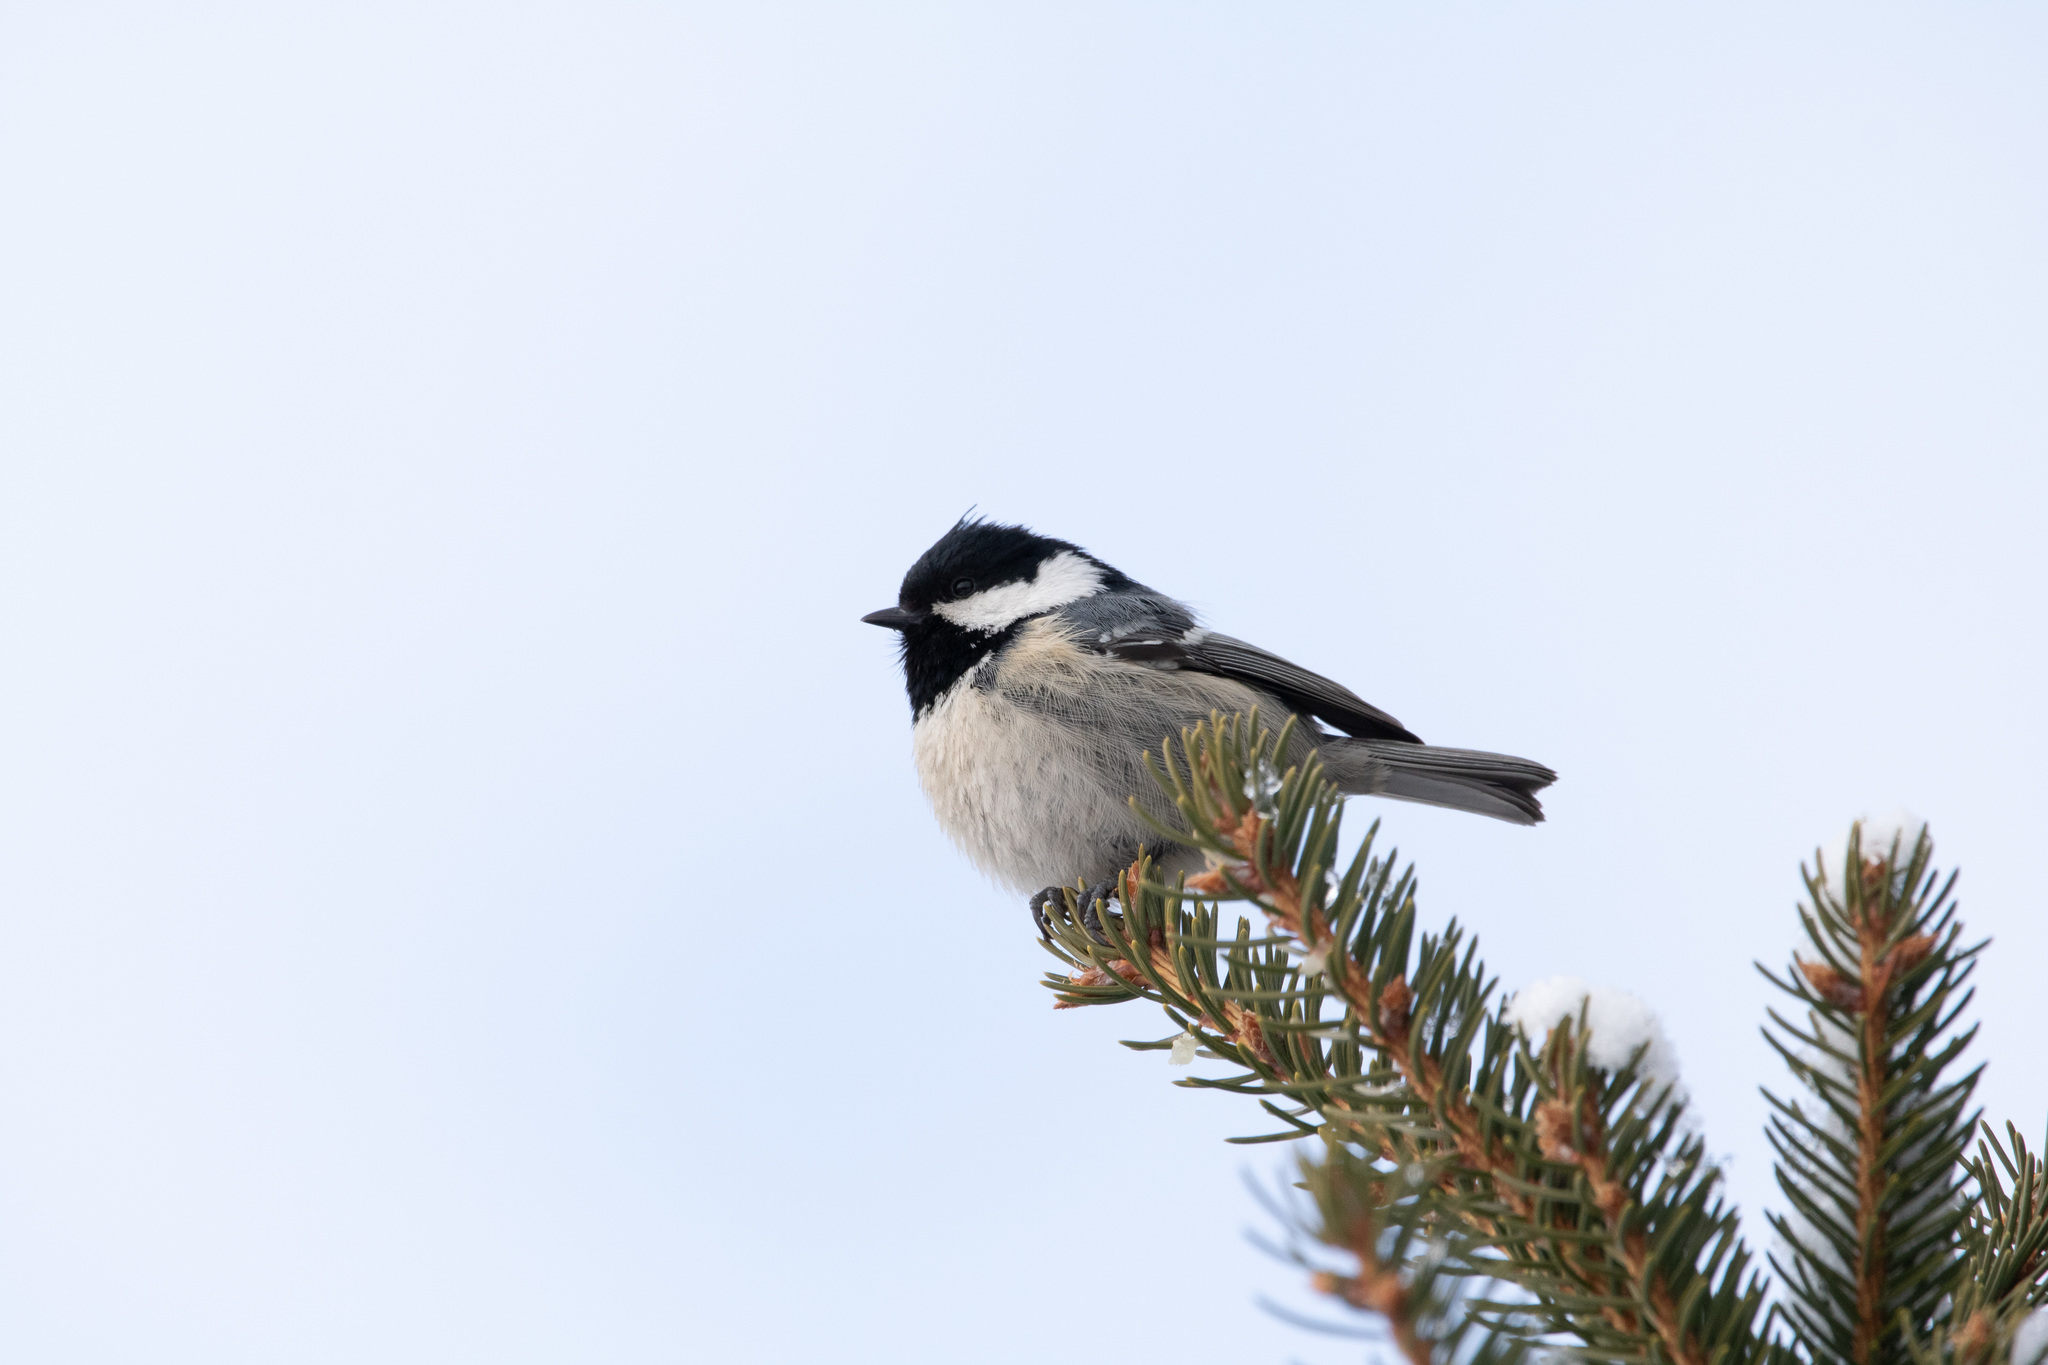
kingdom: Animalia
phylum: Chordata
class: Aves
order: Passeriformes
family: Paridae
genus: Periparus
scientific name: Periparus ater
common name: Coal tit
